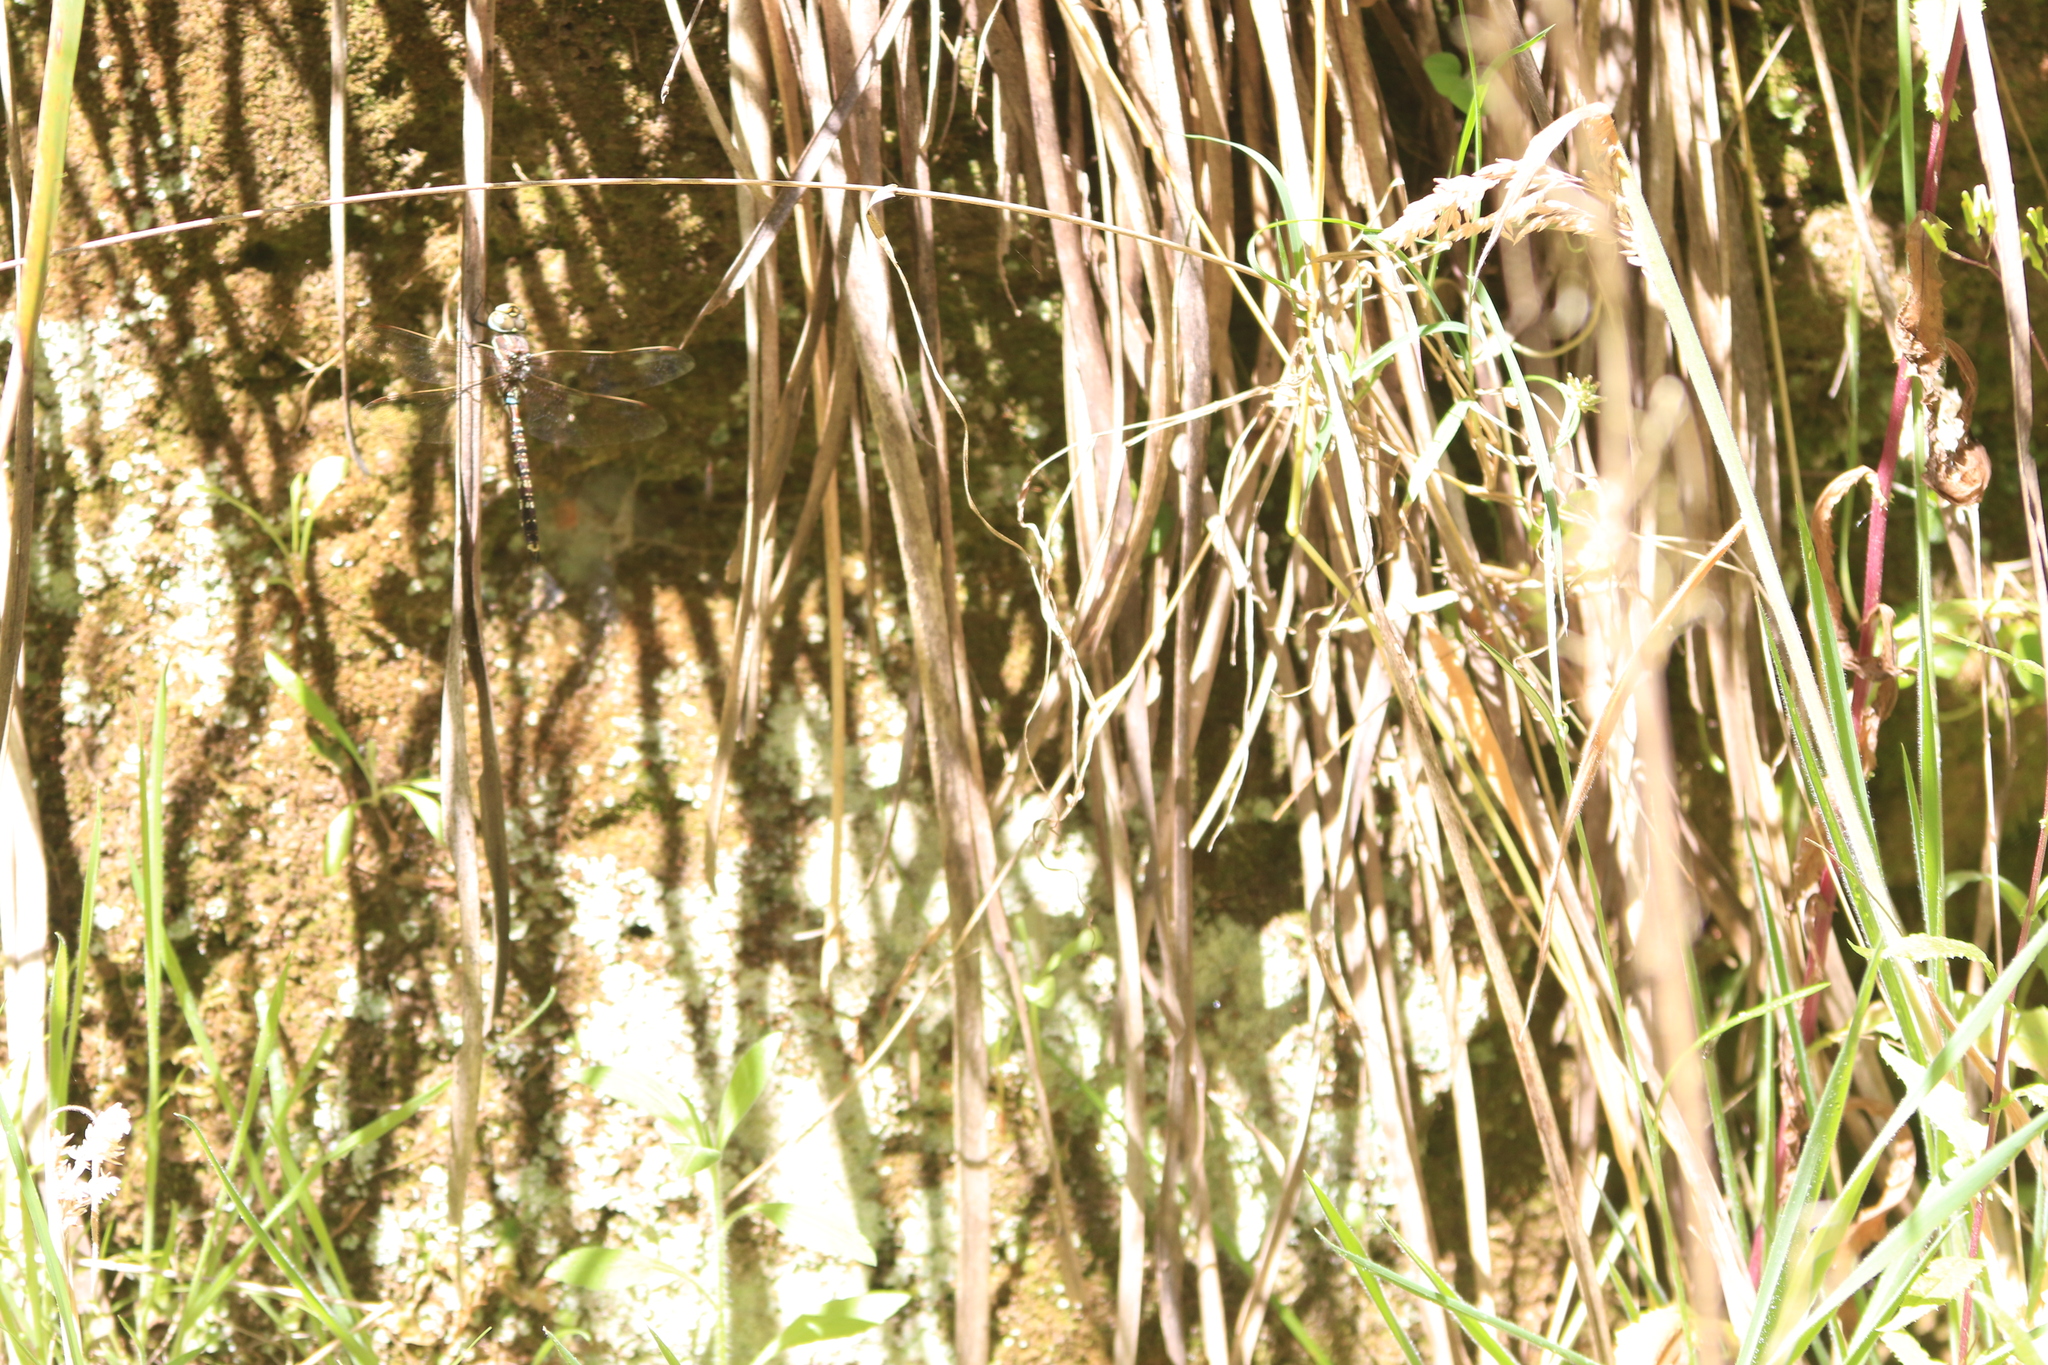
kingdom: Animalia
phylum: Arthropoda
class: Insecta
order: Lepidoptera
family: Nymphalidae
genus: Geitoneura
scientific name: Geitoneura acantha
